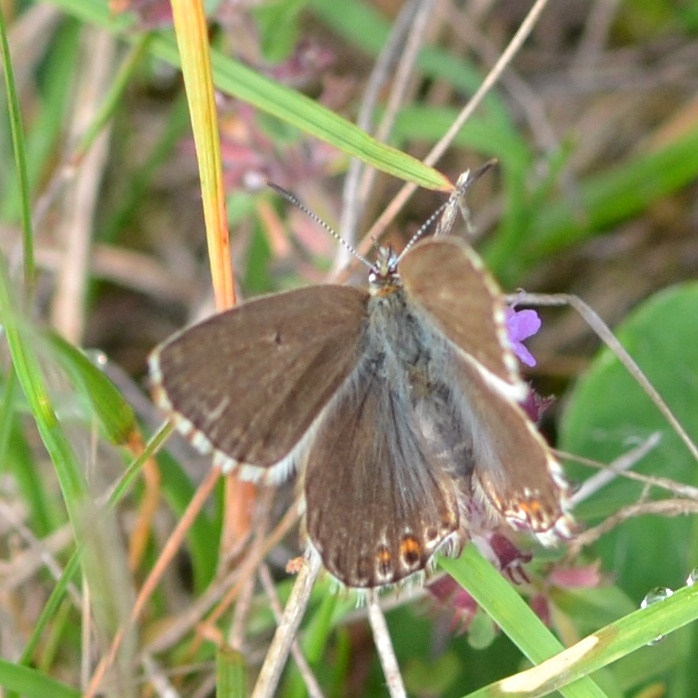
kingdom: Animalia
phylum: Arthropoda
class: Insecta
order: Lepidoptera
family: Lycaenidae
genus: Lysandra
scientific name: Lysandra coridon
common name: Chalkhill blue
